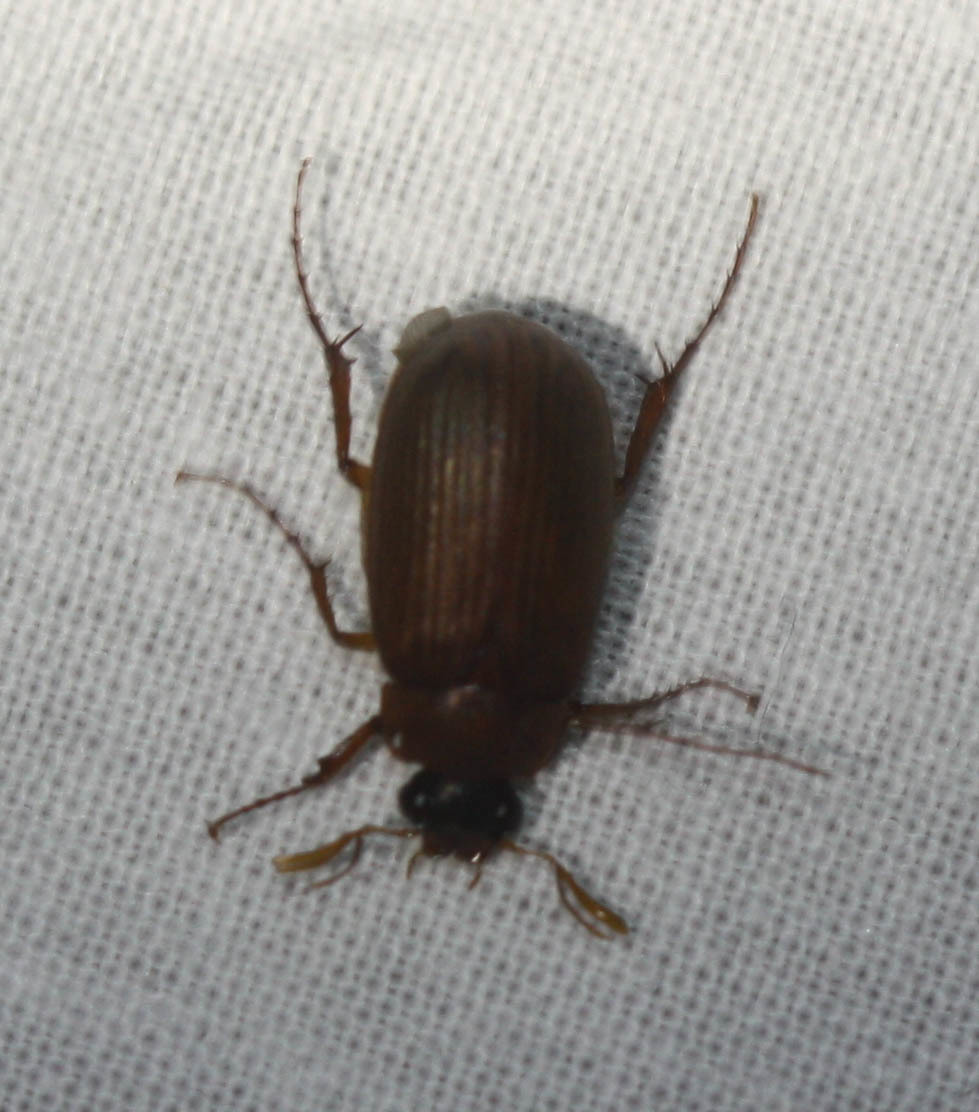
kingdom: Animalia
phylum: Arthropoda
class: Insecta
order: Coleoptera
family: Scarabaeidae
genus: Serica
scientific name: Serica brunnea
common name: Brown chafer
